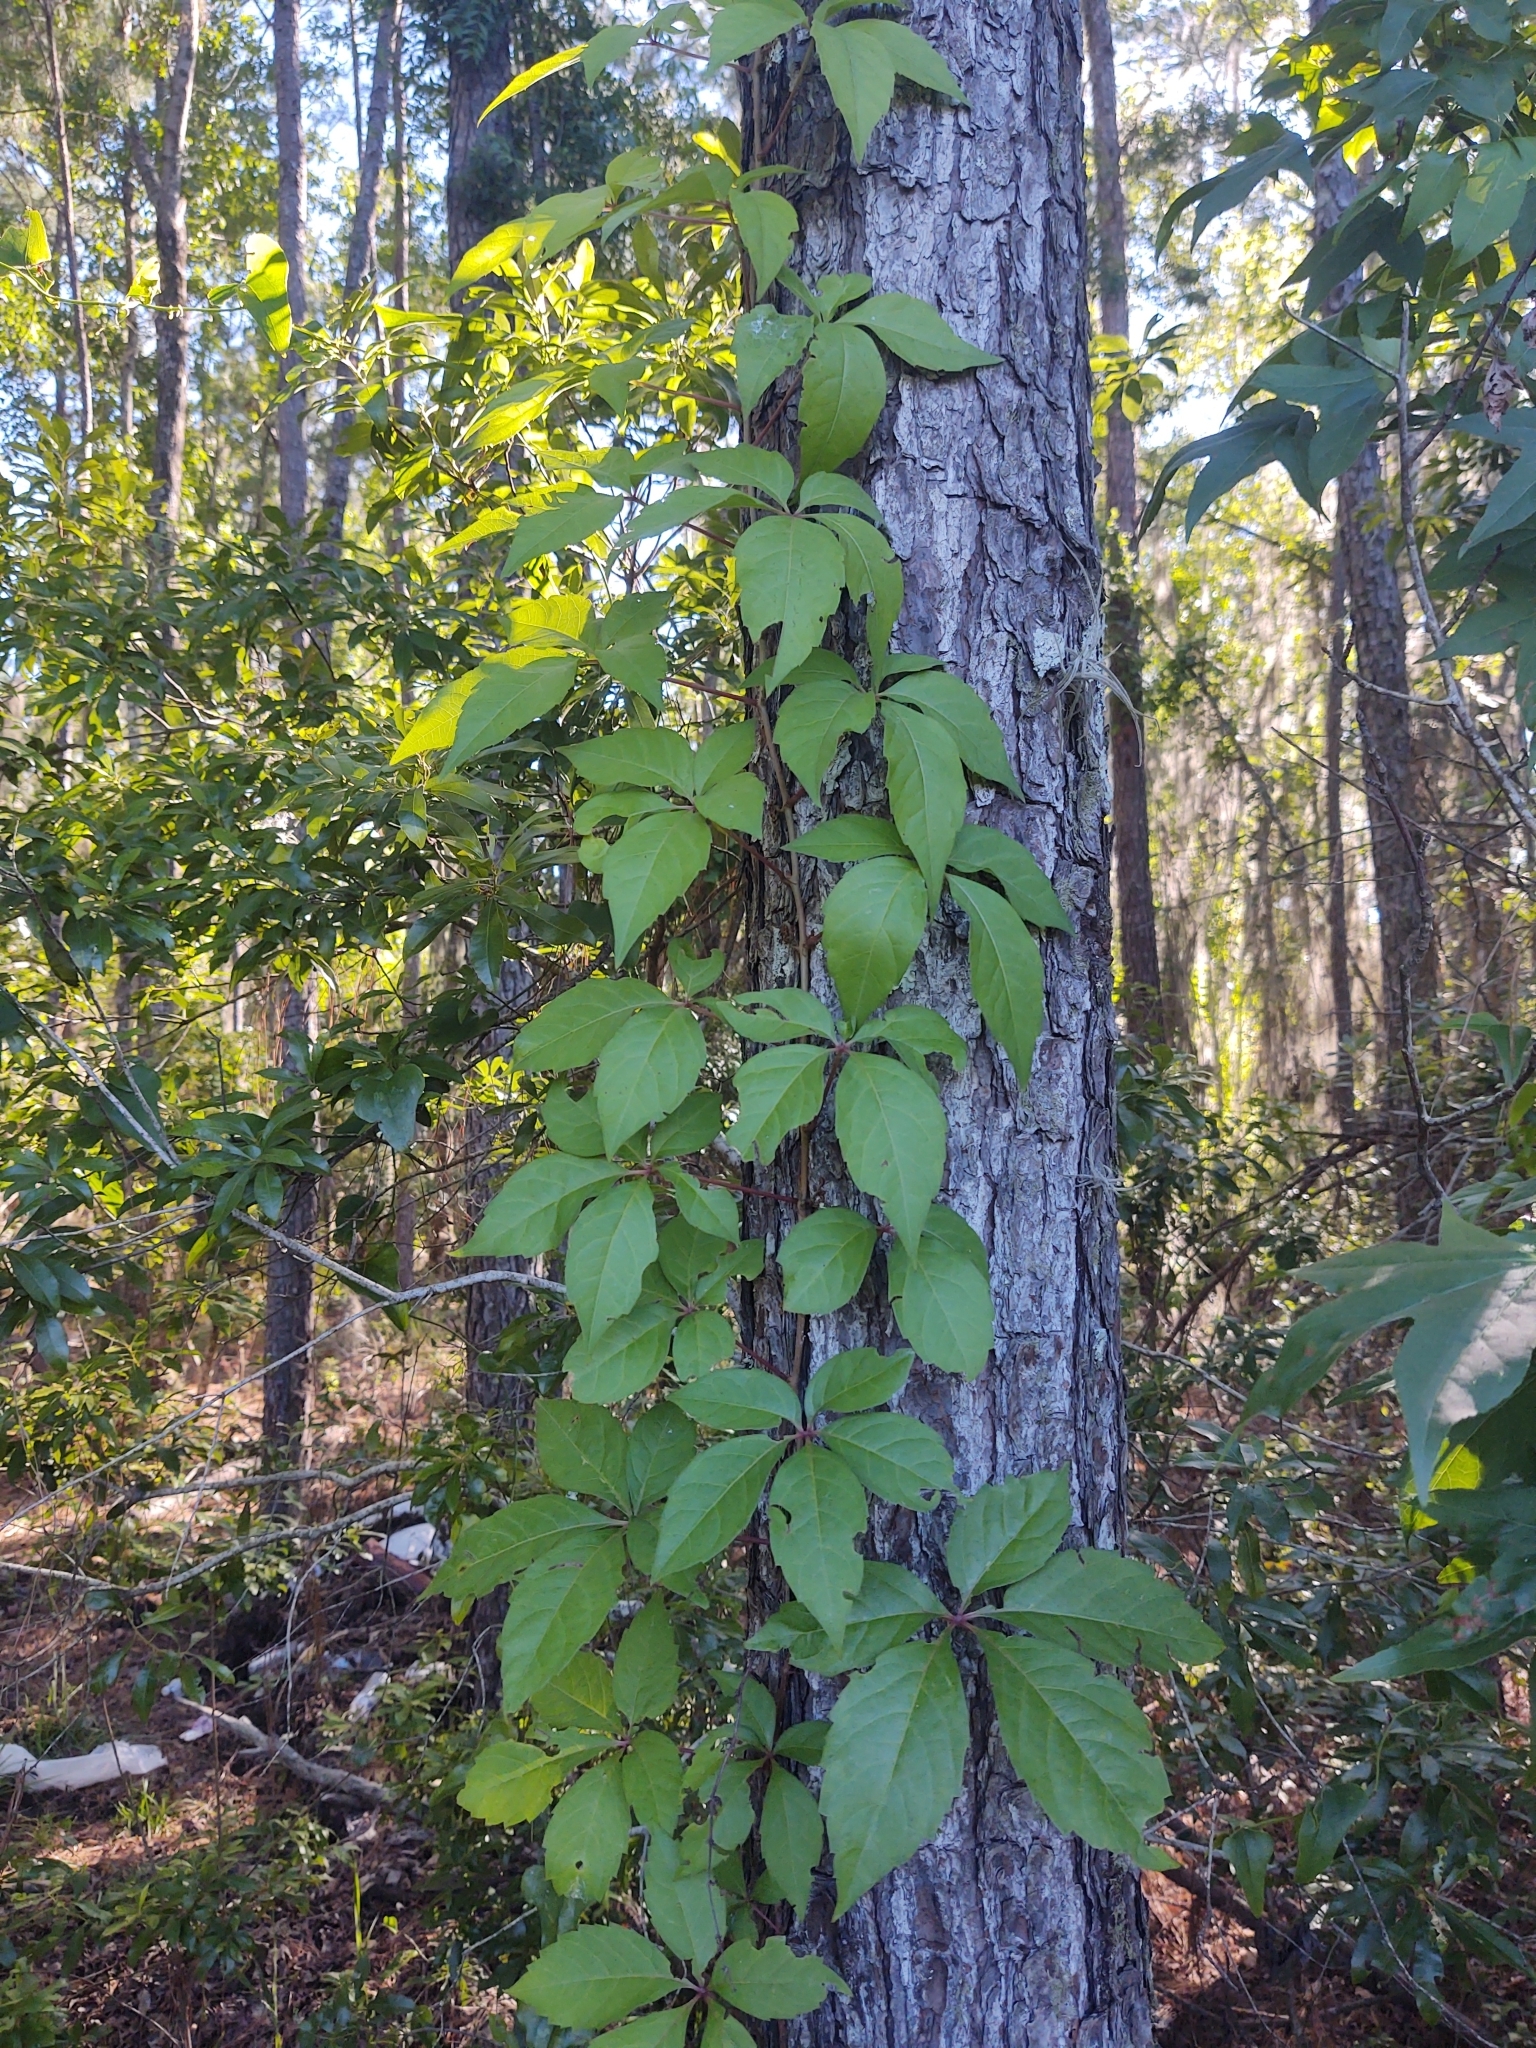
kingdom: Plantae
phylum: Tracheophyta
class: Magnoliopsida
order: Vitales
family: Vitaceae
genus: Parthenocissus
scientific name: Parthenocissus quinquefolia
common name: Virginia-creeper
